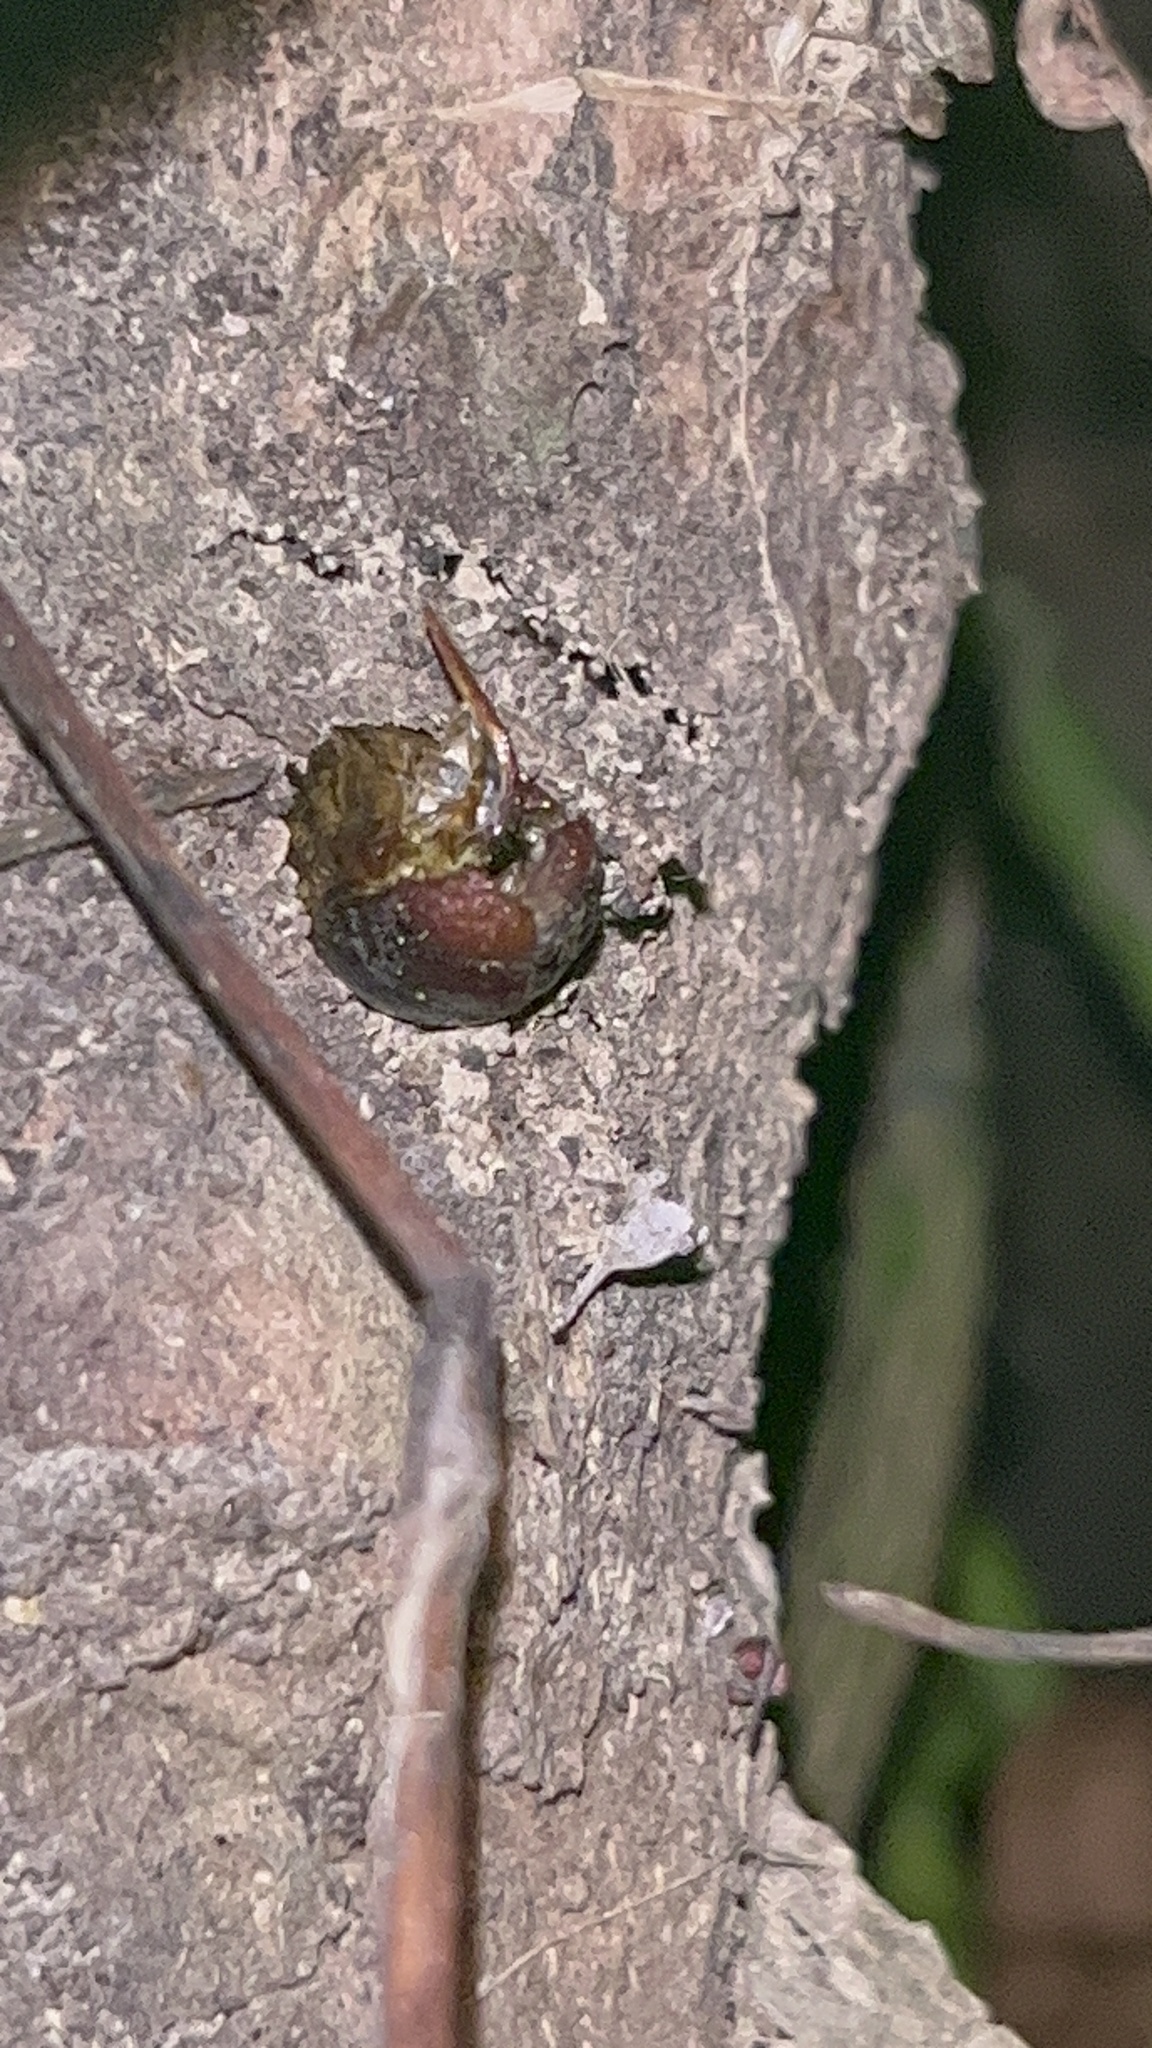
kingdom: Animalia
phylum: Arthropoda
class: Insecta
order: Lepidoptera
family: Hepialidae
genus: Aenetus
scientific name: Aenetus virescens
